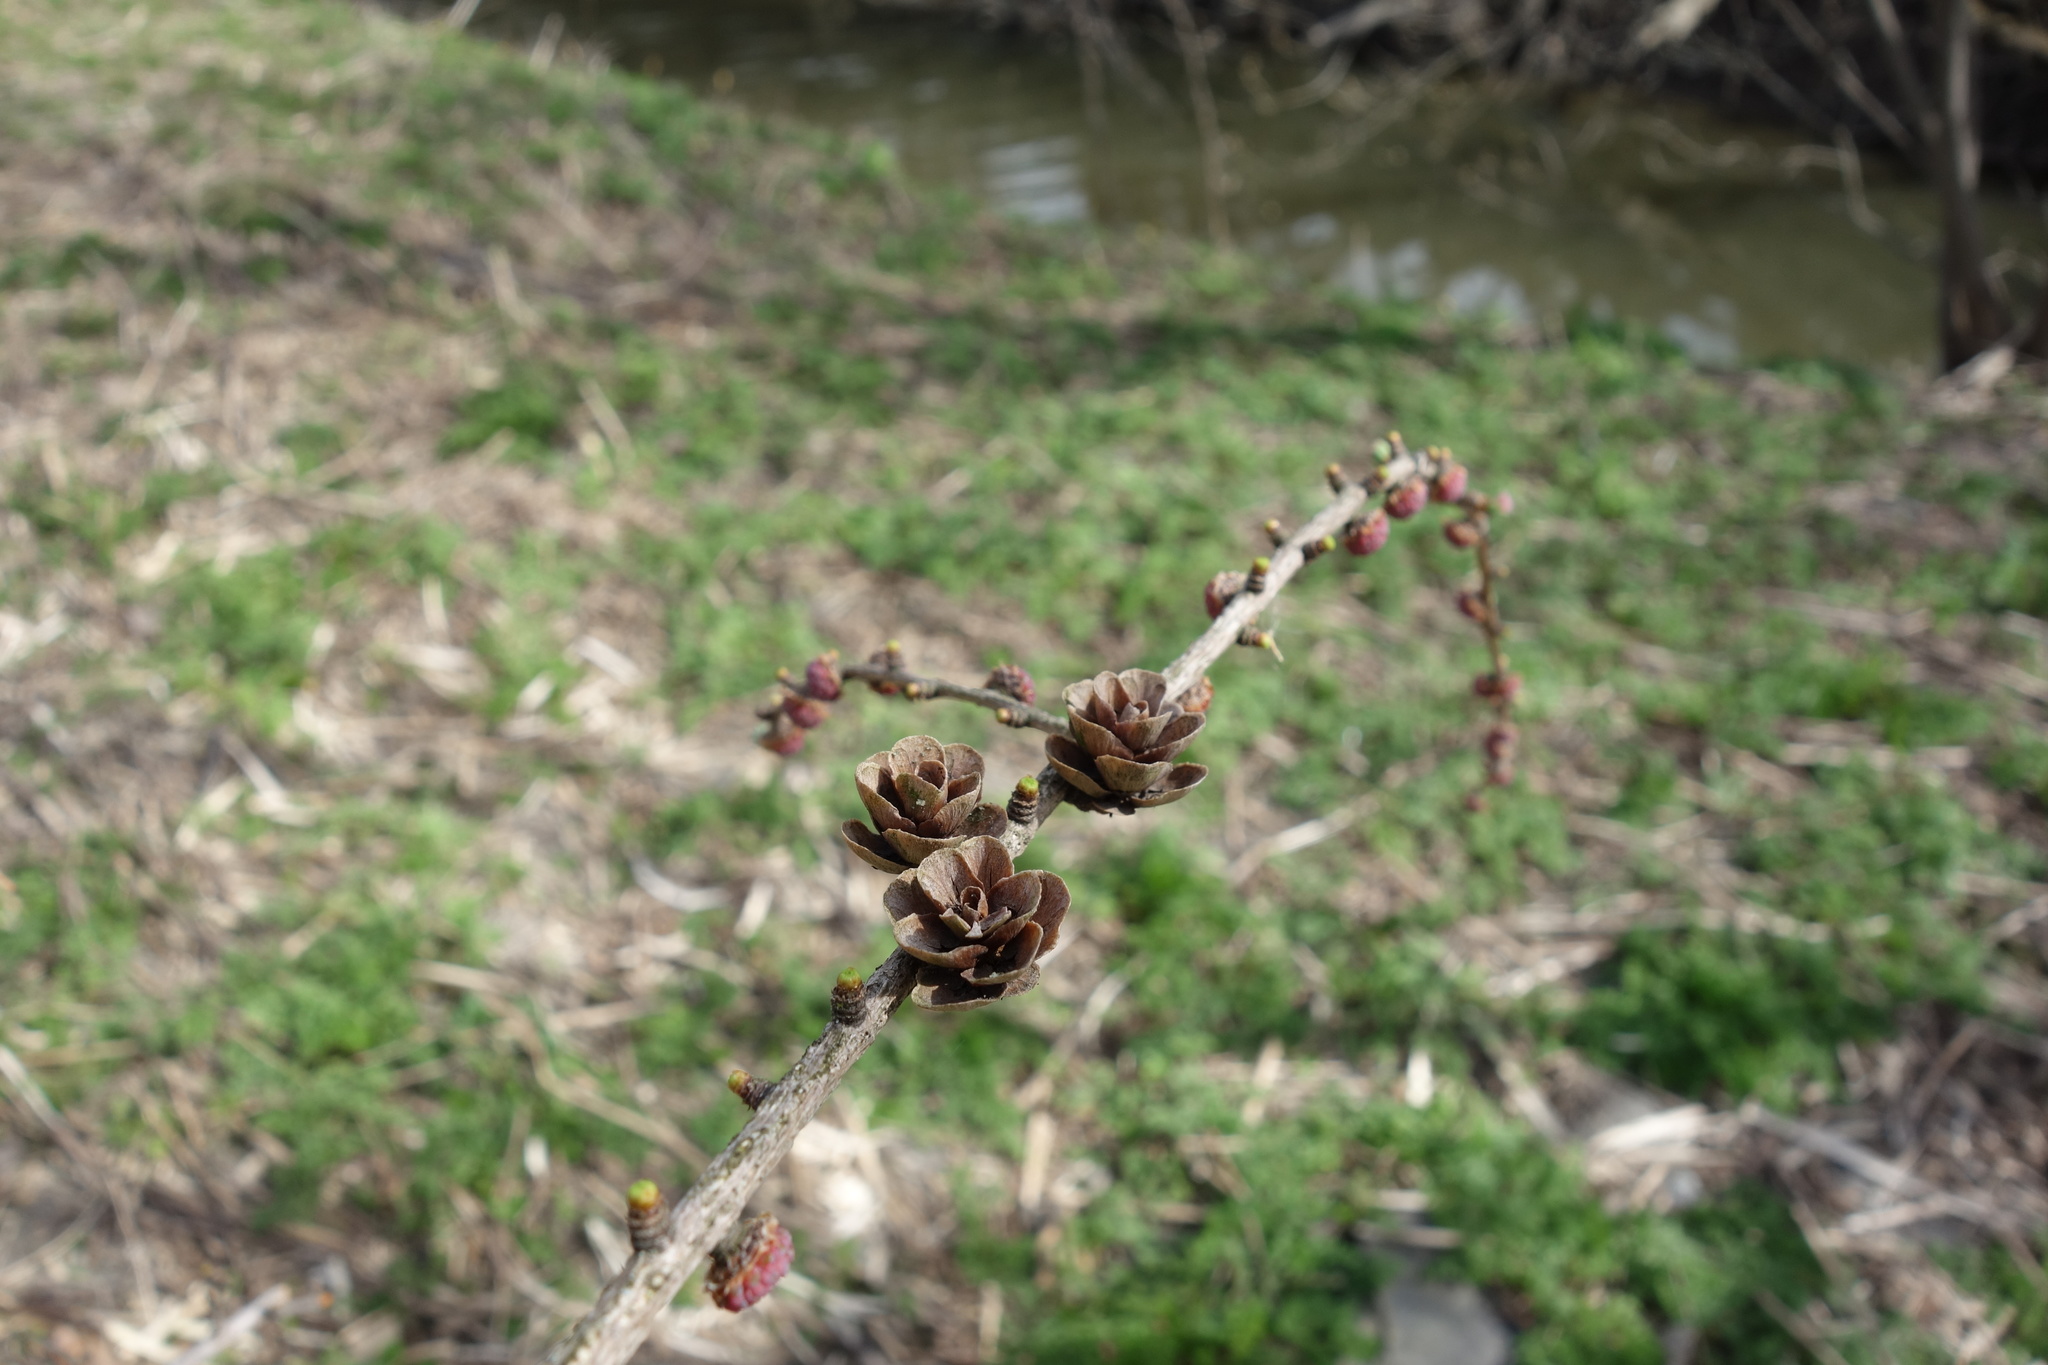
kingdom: Plantae
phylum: Tracheophyta
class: Pinopsida
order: Pinales
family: Pinaceae
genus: Larix
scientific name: Larix laricina
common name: American larch
